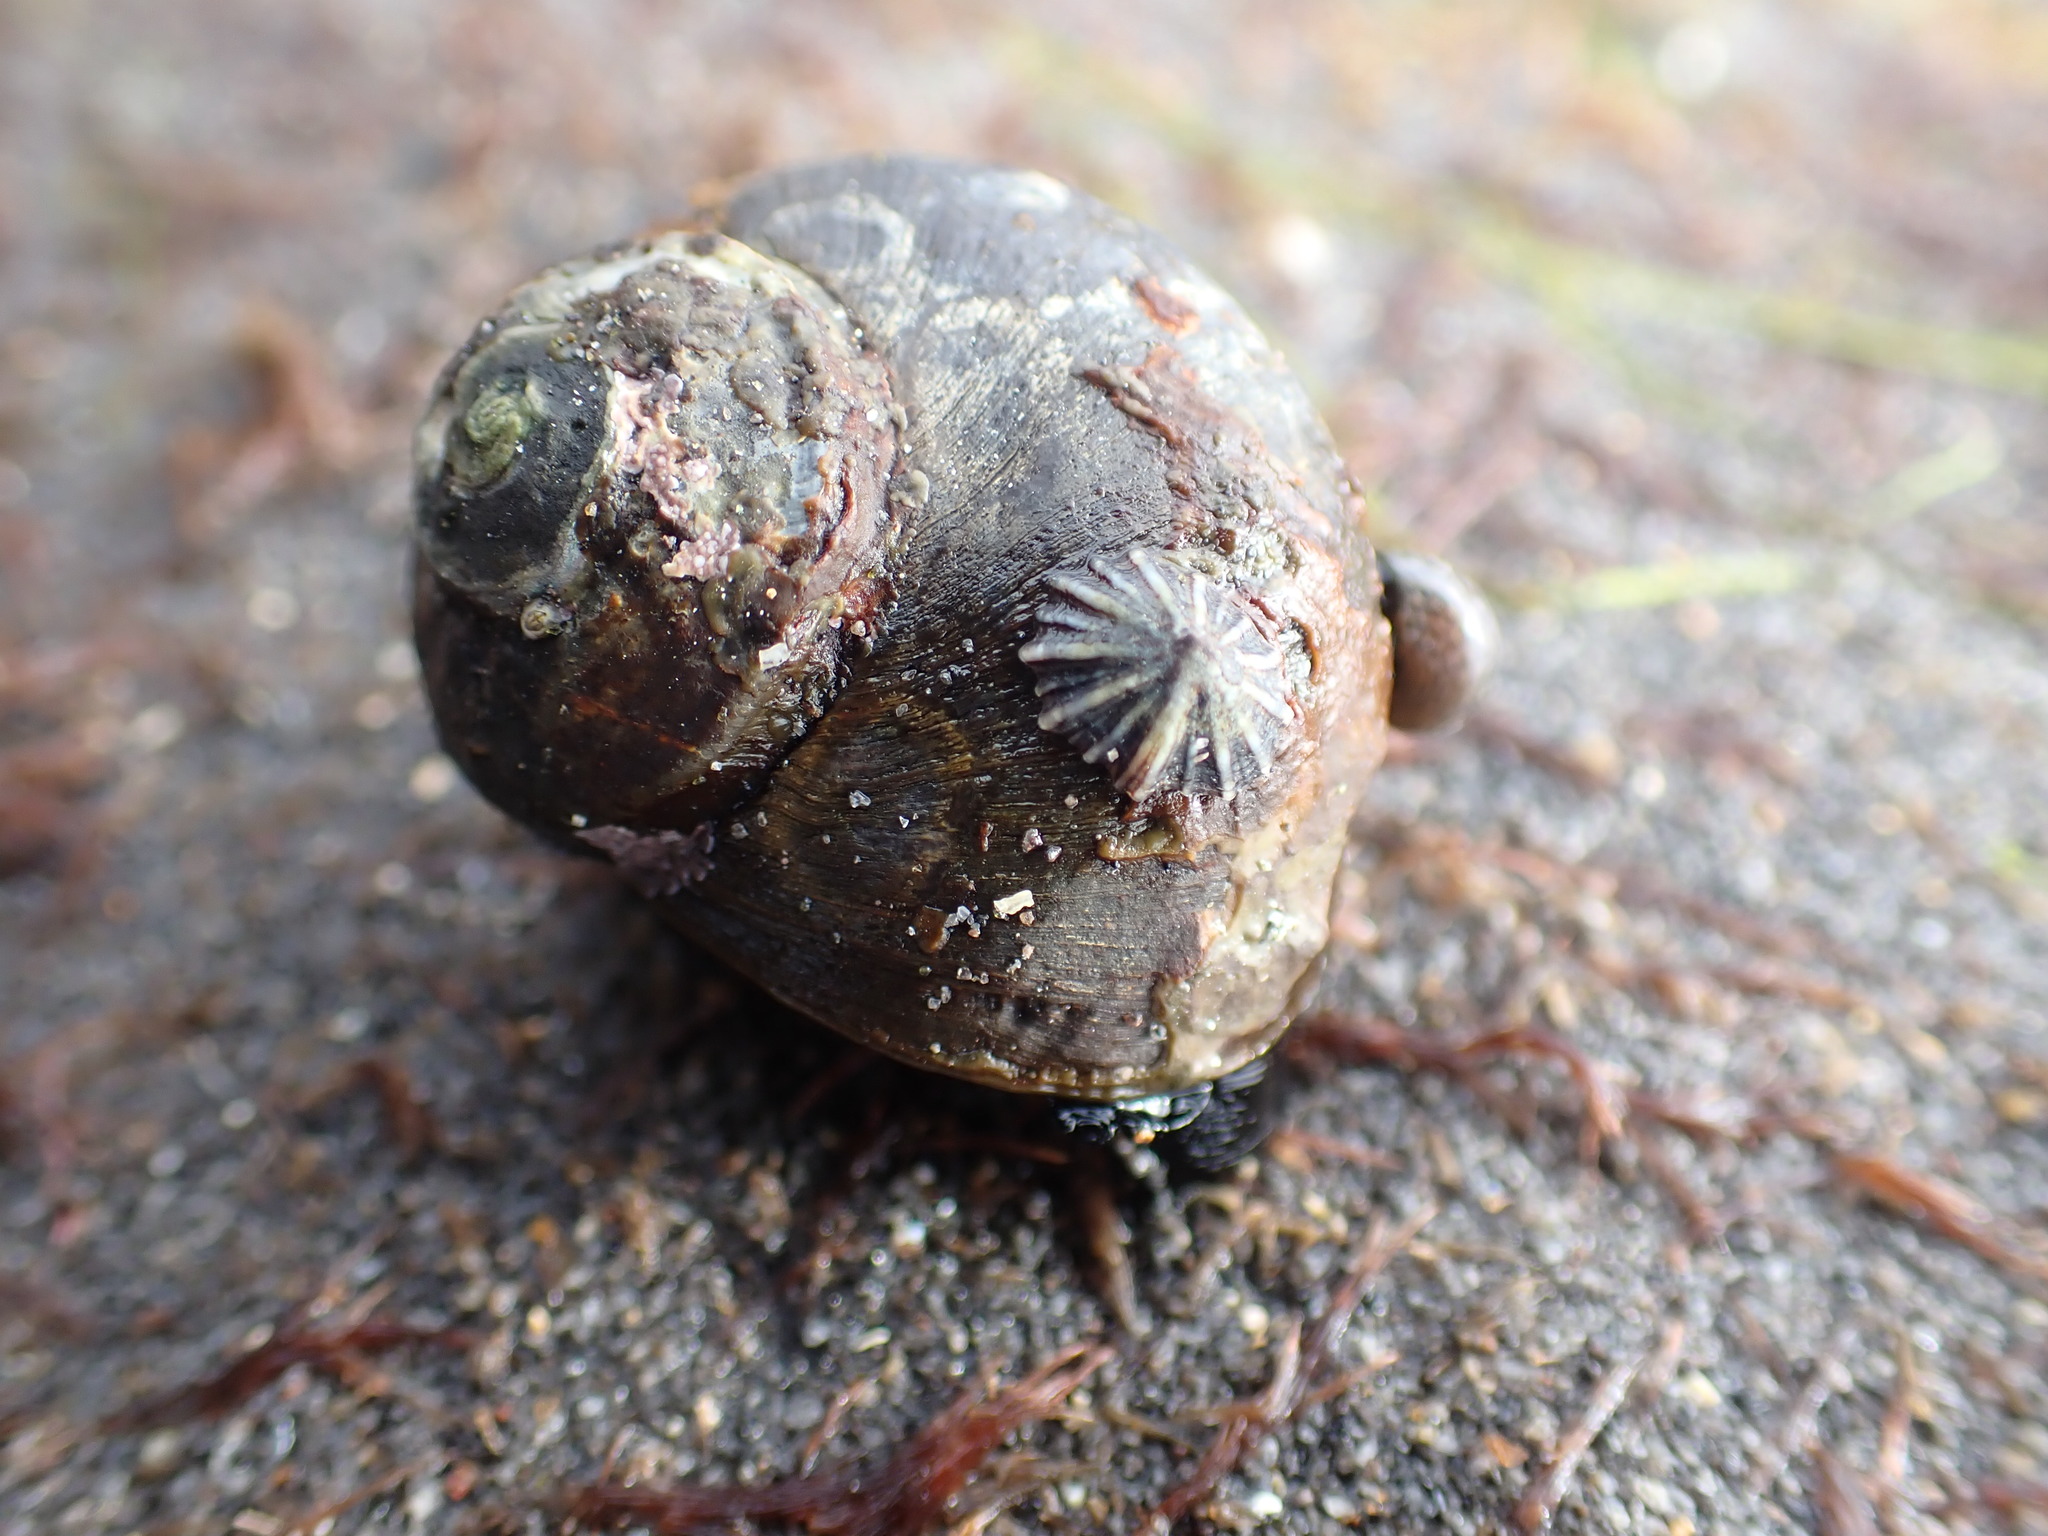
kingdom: Animalia
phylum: Mollusca
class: Gastropoda
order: Siphonariida
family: Siphonariidae
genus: Siphonaria
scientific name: Siphonaria australis
